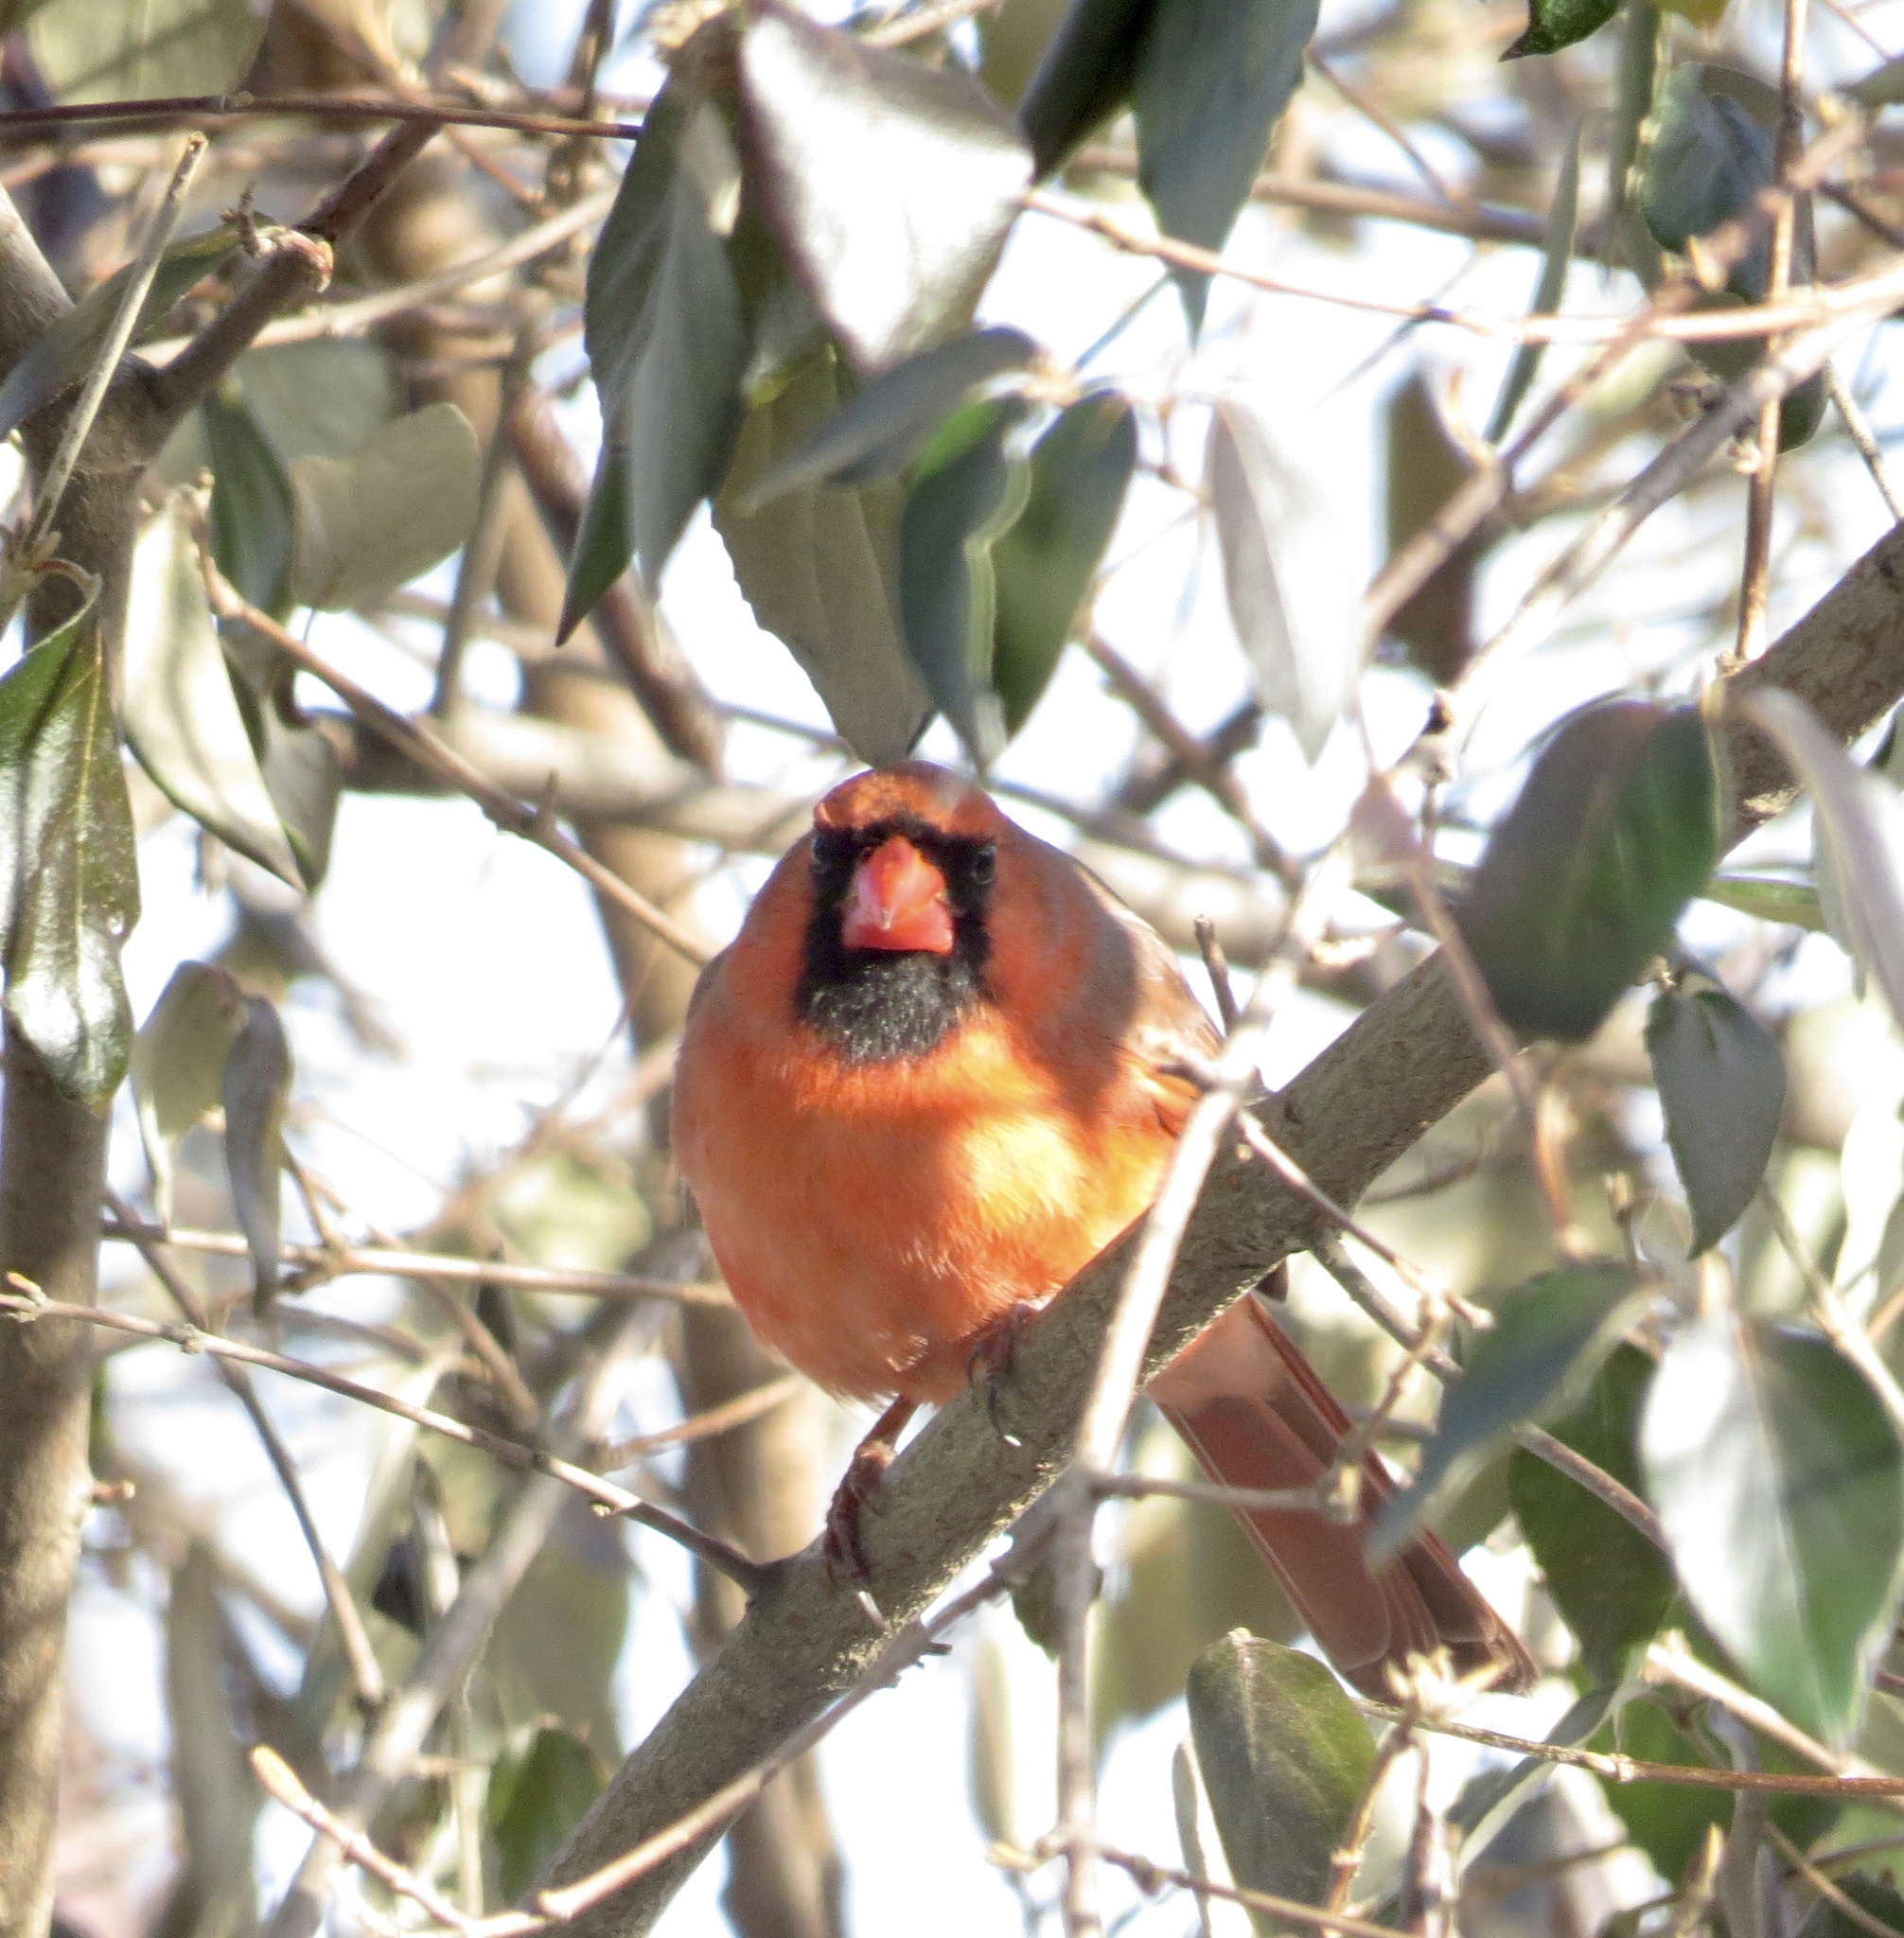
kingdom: Animalia
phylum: Chordata
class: Aves
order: Passeriformes
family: Cardinalidae
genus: Cardinalis
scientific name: Cardinalis cardinalis
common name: Northern cardinal
